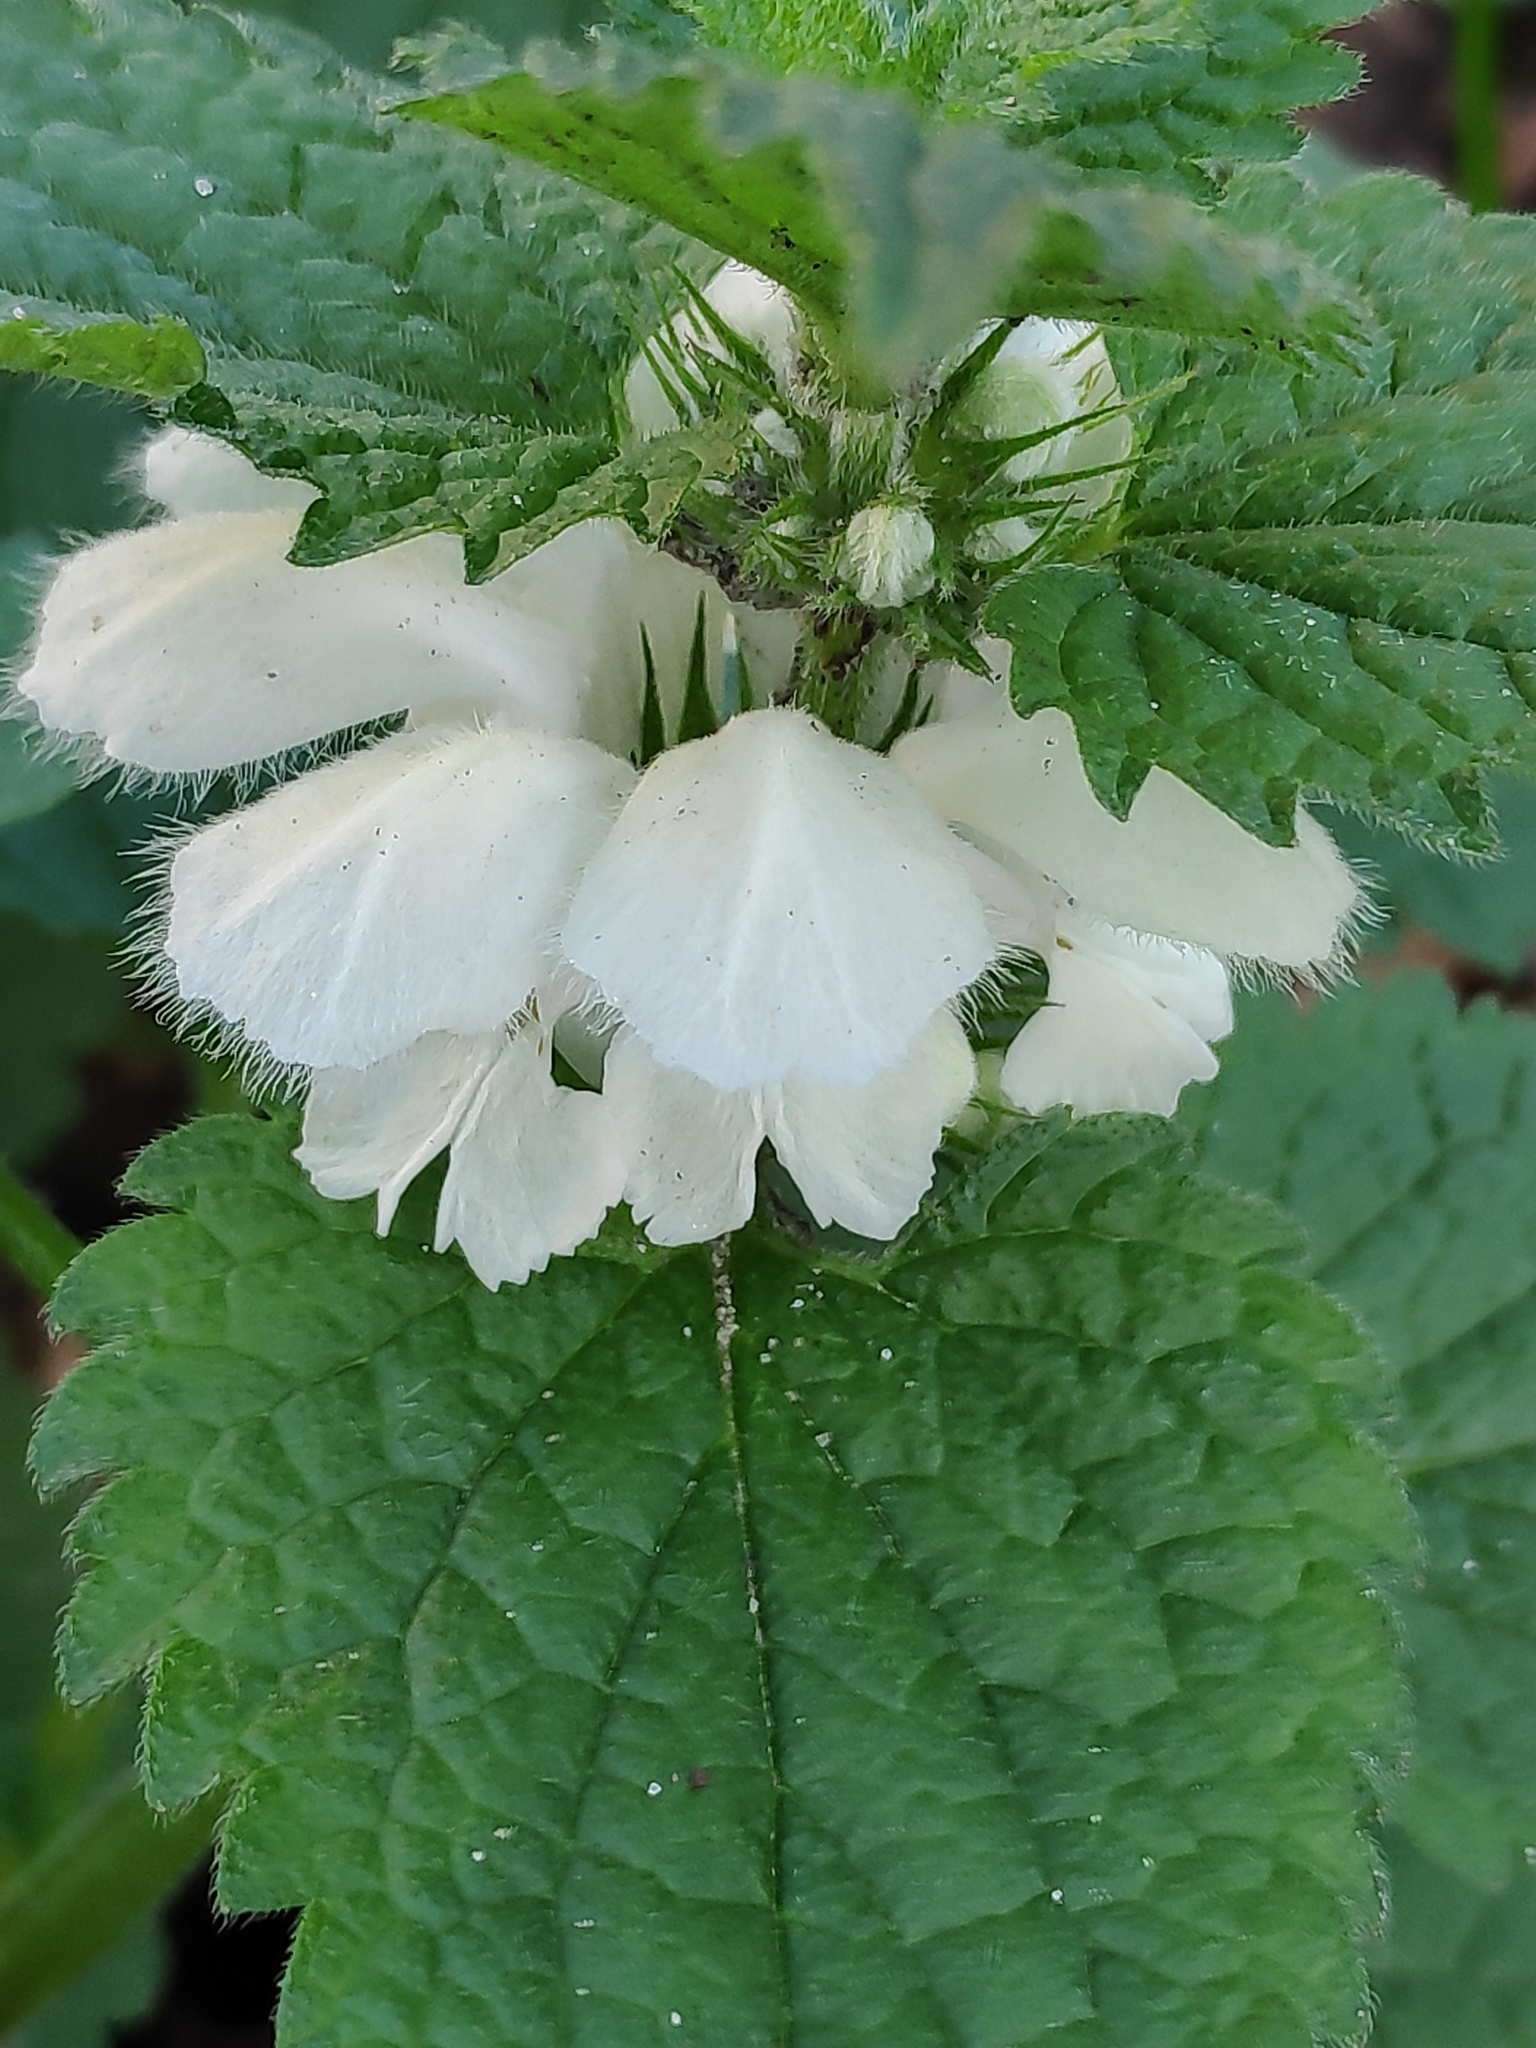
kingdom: Plantae
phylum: Tracheophyta
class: Magnoliopsida
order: Lamiales
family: Lamiaceae
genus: Lamium
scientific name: Lamium album
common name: White dead-nettle
